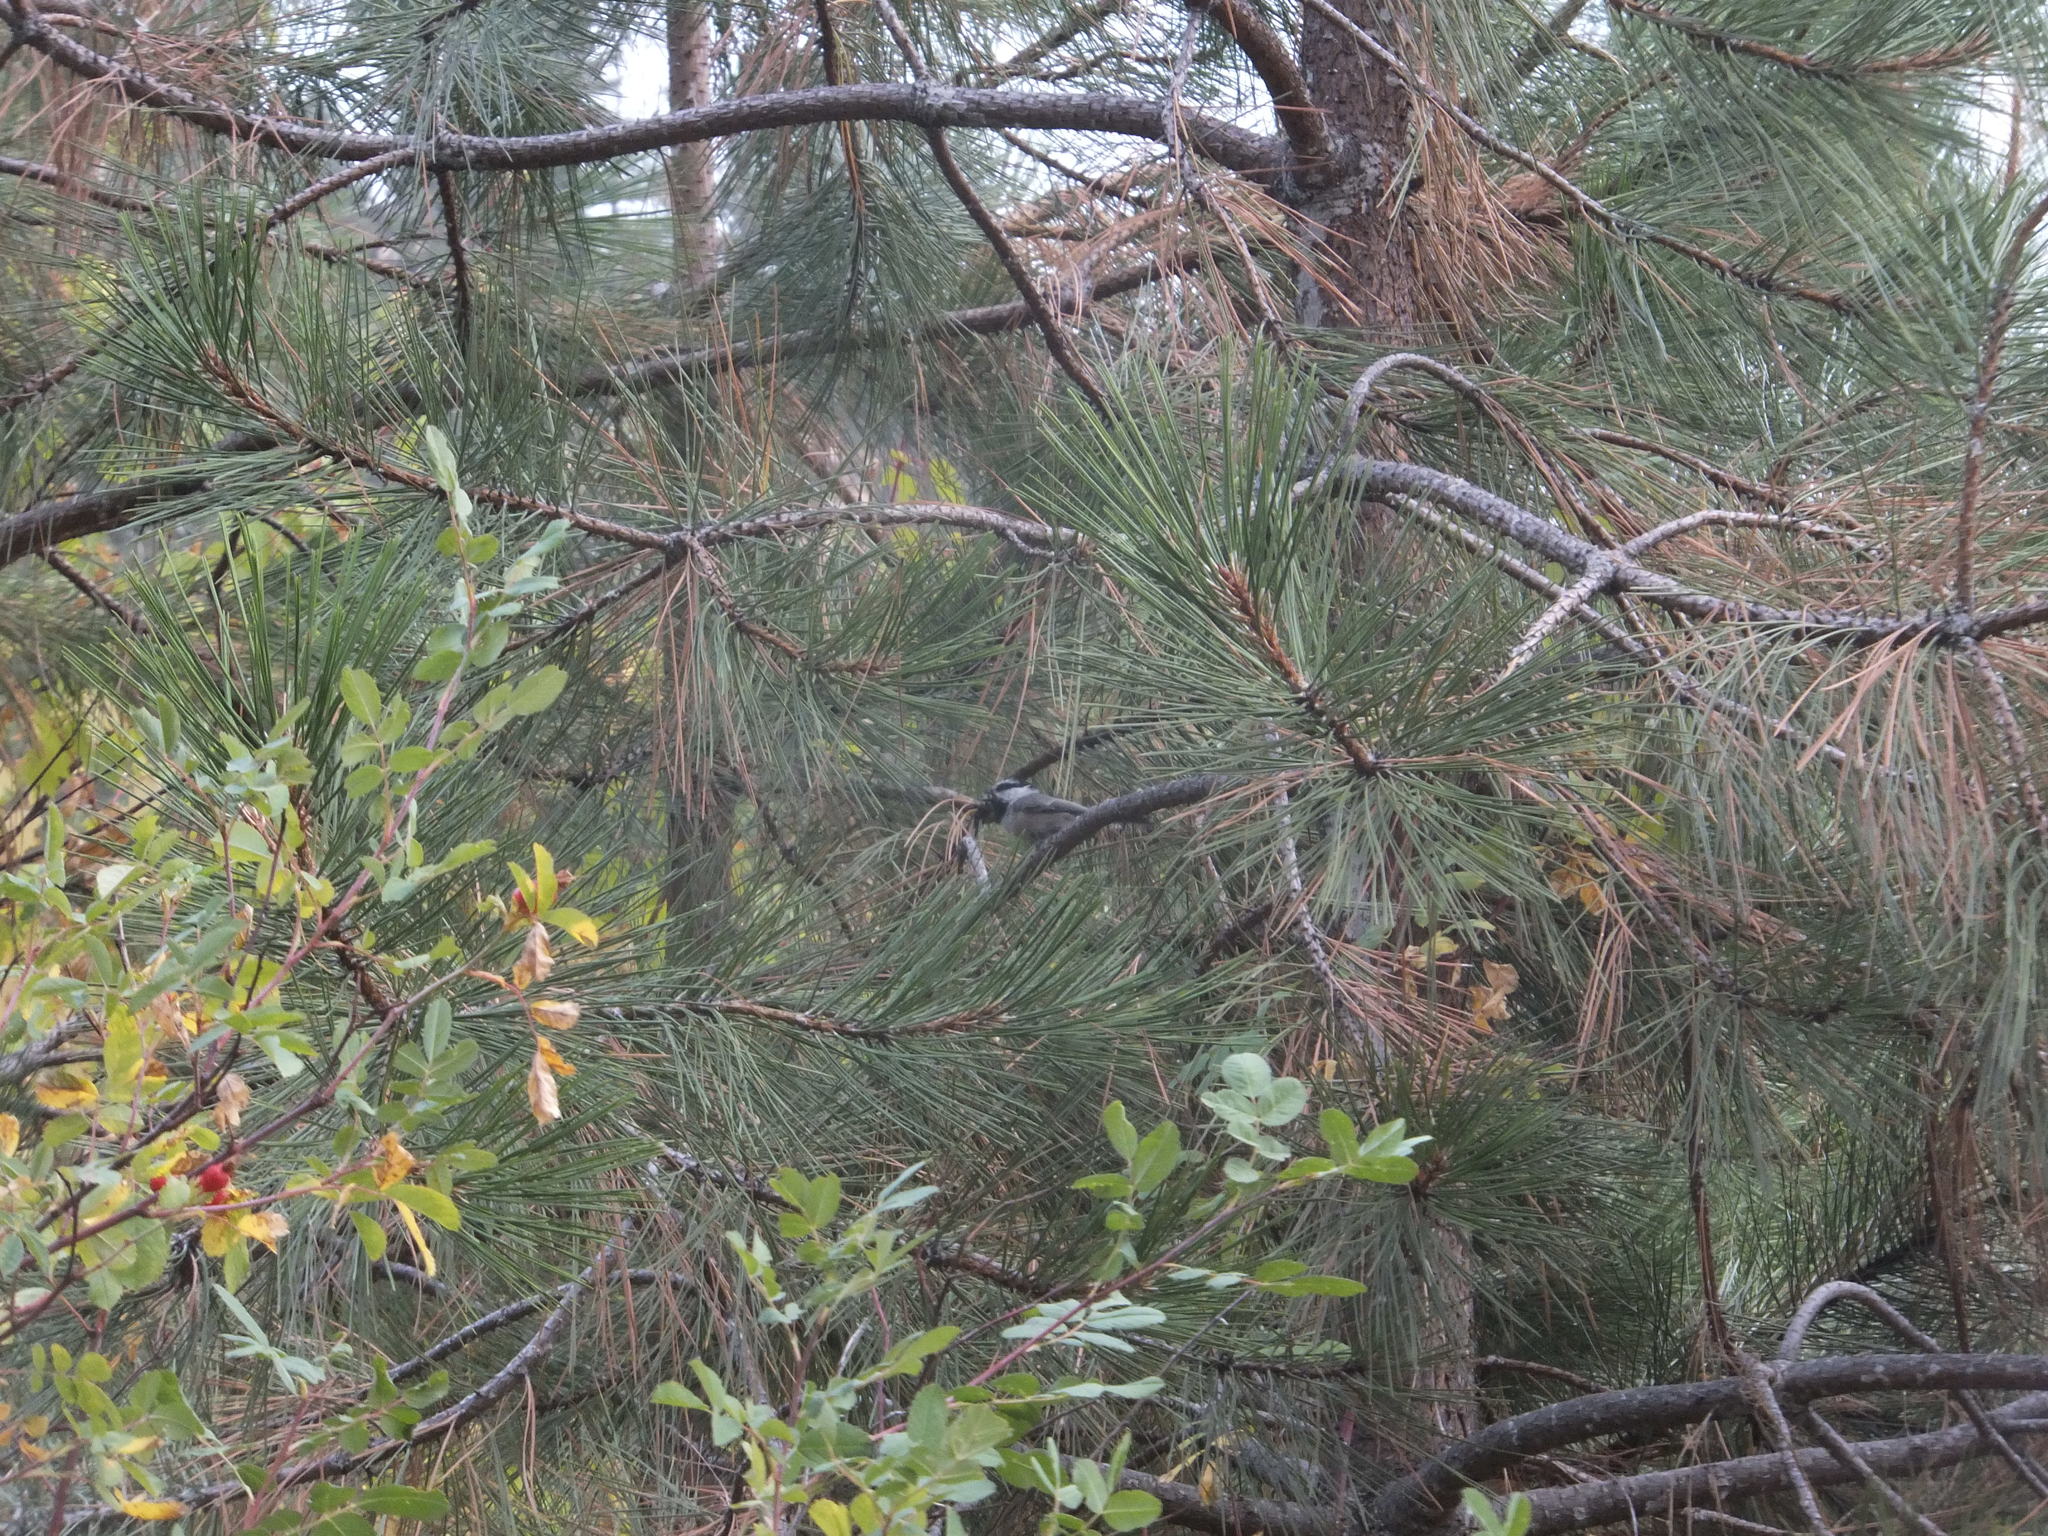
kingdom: Animalia
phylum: Chordata
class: Aves
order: Passeriformes
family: Paridae
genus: Poecile
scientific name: Poecile gambeli
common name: Mountain chickadee
